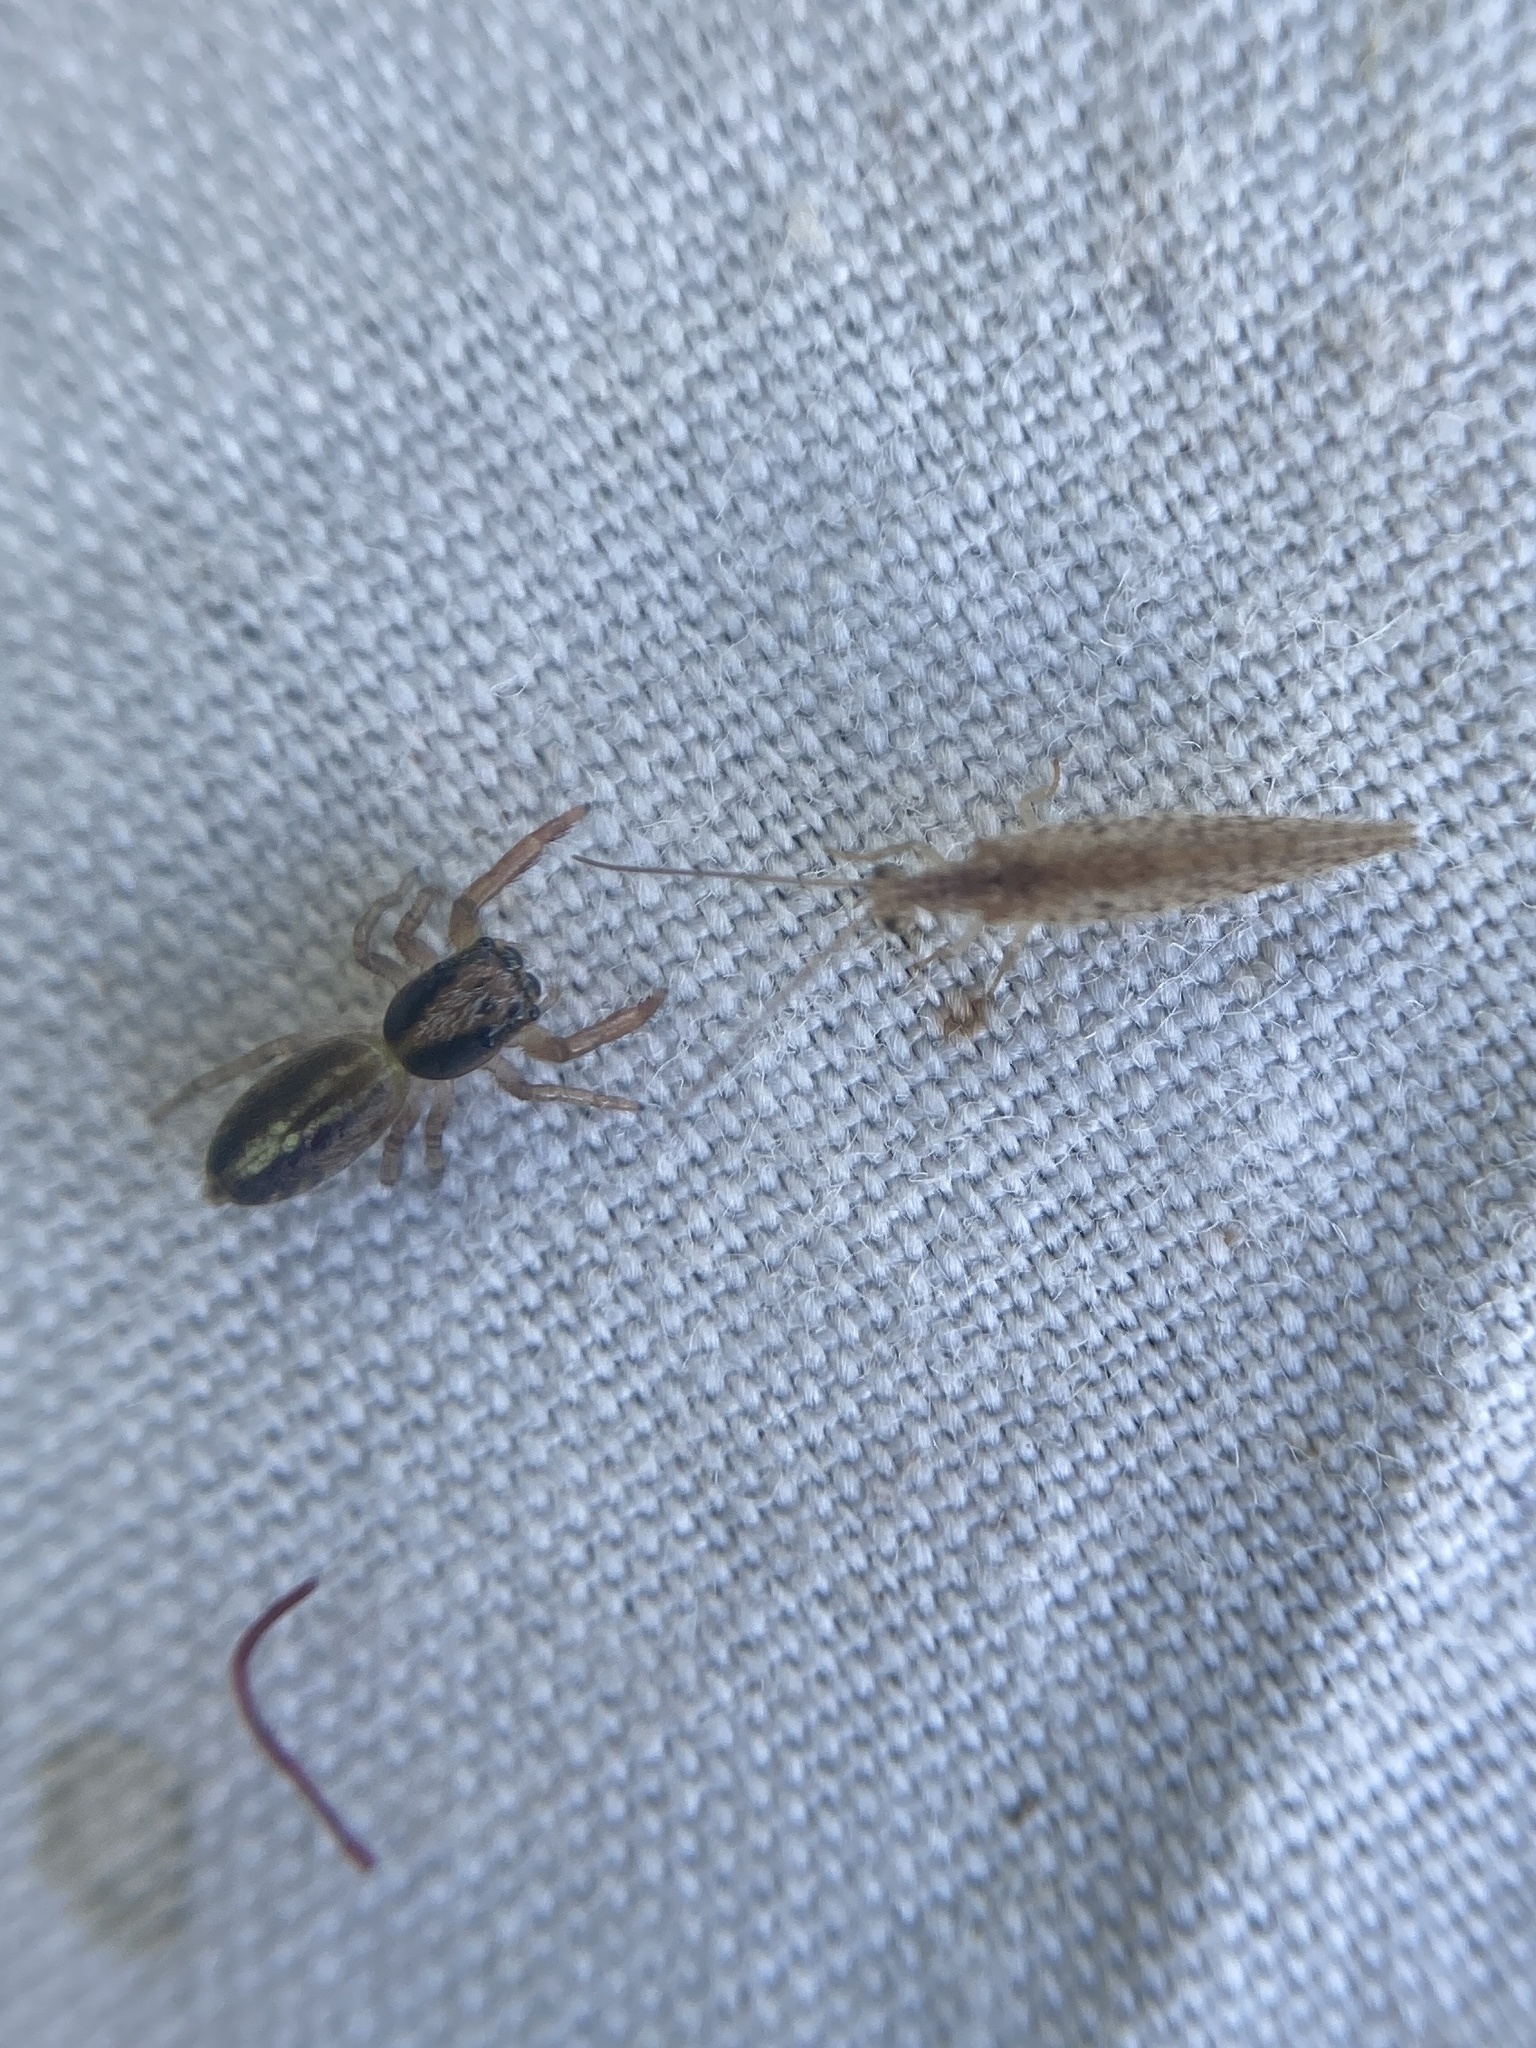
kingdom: Animalia
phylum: Arthropoda
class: Insecta
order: Neuroptera
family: Hemerobiidae
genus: Micromus
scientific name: Micromus tasmaniae
